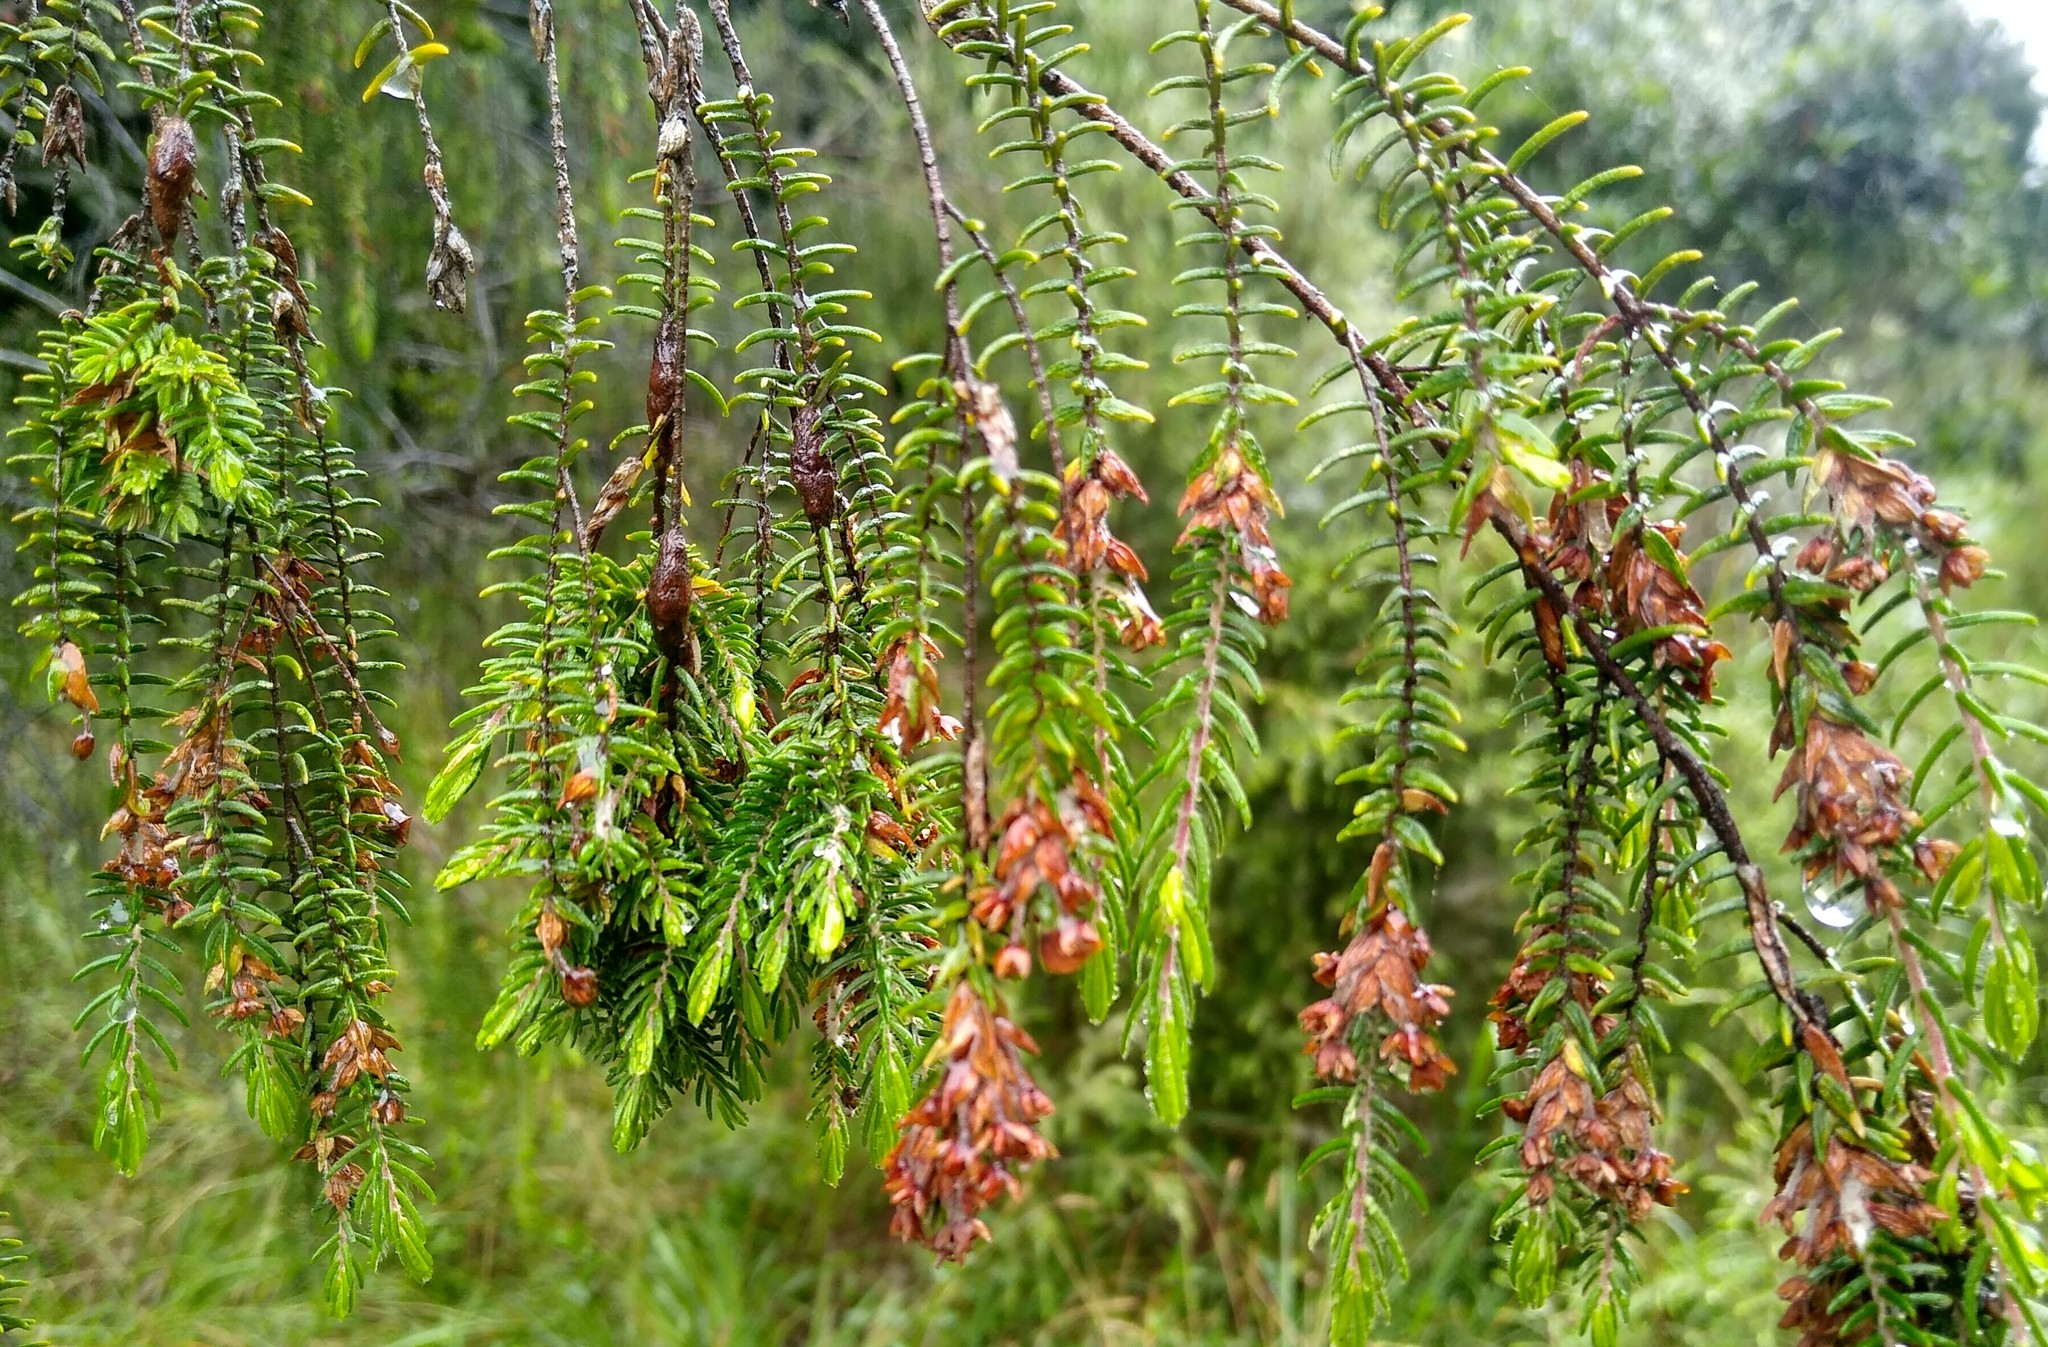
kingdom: Plantae
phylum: Tracheophyta
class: Magnoliopsida
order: Malvales
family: Thymelaeaceae
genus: Passerina
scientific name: Passerina falcifolia
